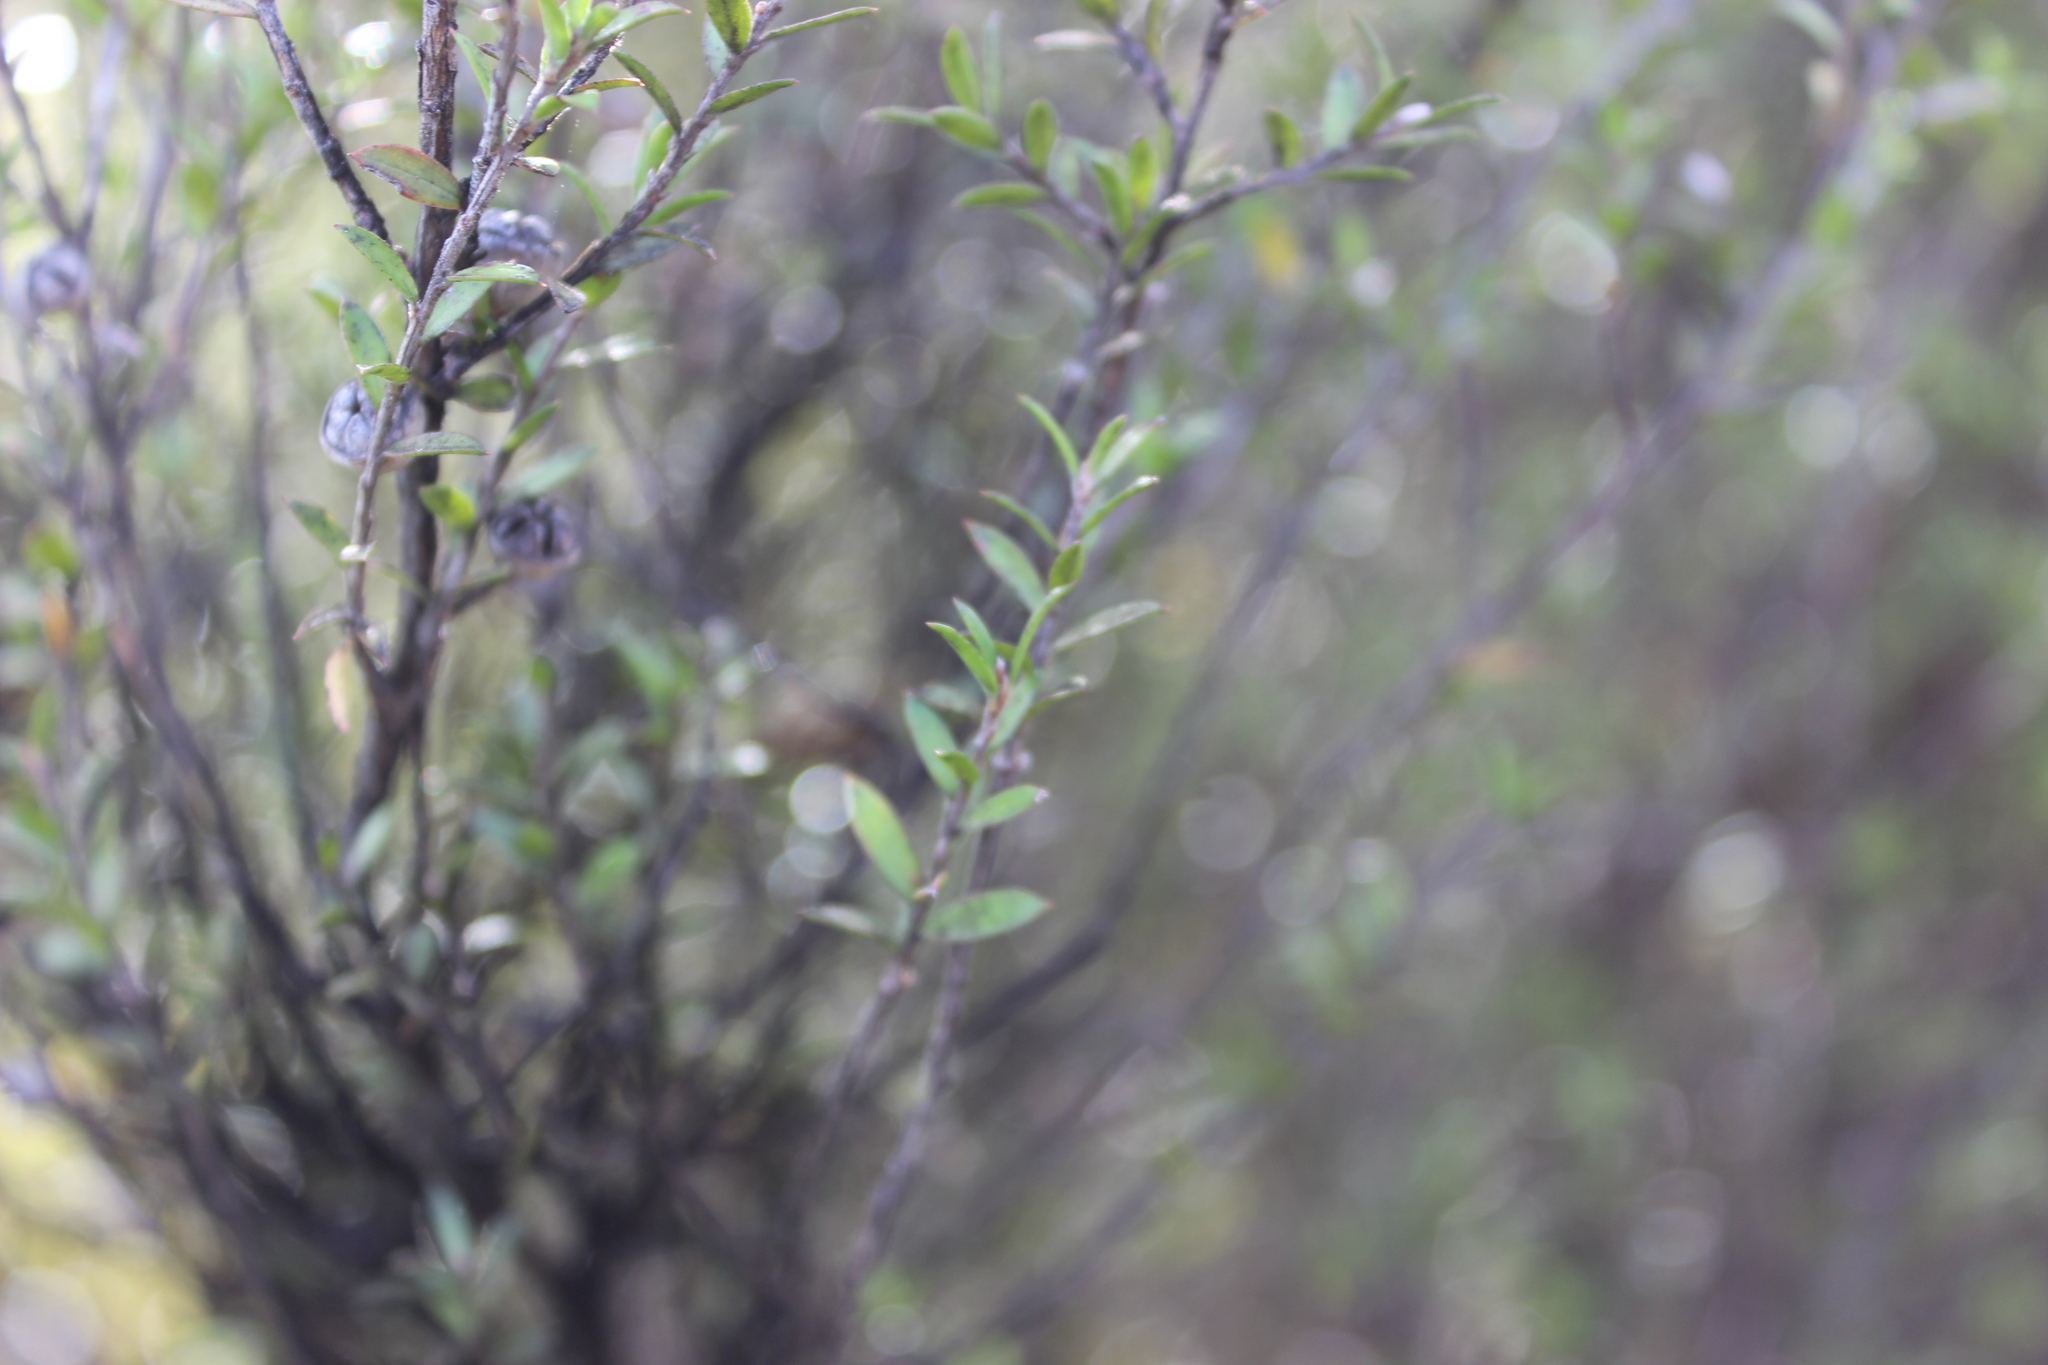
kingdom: Plantae
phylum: Tracheophyta
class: Magnoliopsida
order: Myrtales
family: Myrtaceae
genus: Leptospermum
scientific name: Leptospermum scoparium
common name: Broom tea-tree
